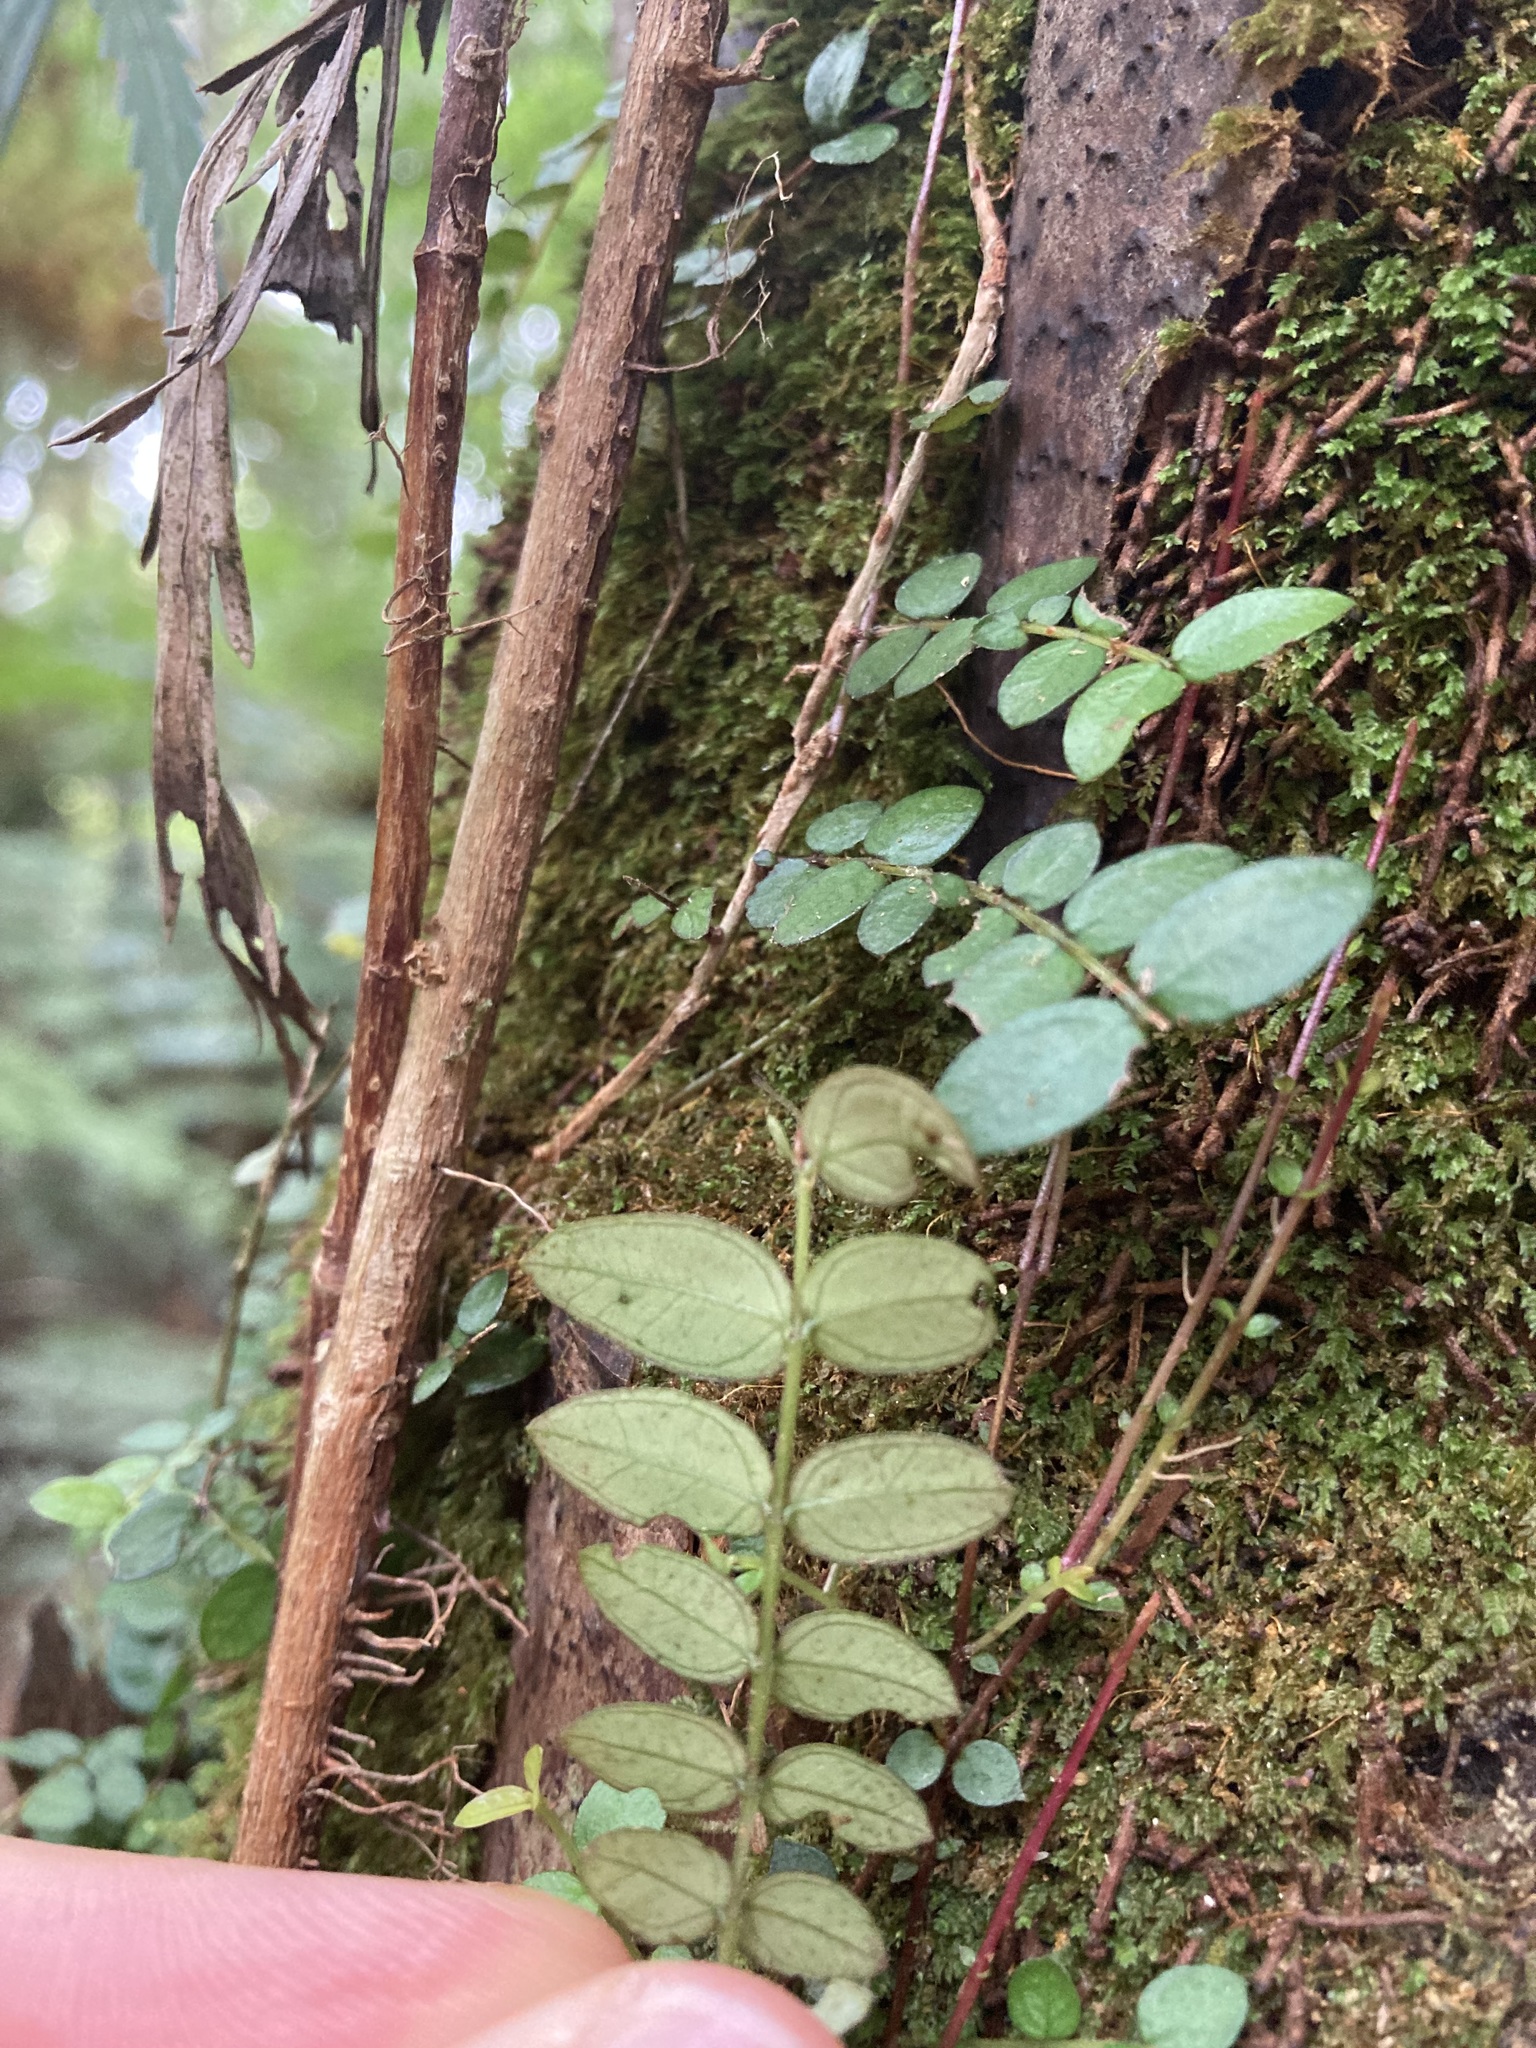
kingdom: Plantae
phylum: Tracheophyta
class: Magnoliopsida
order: Myrtales
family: Myrtaceae
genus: Metrosideros
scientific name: Metrosideros diffusa
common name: Small ratavine
